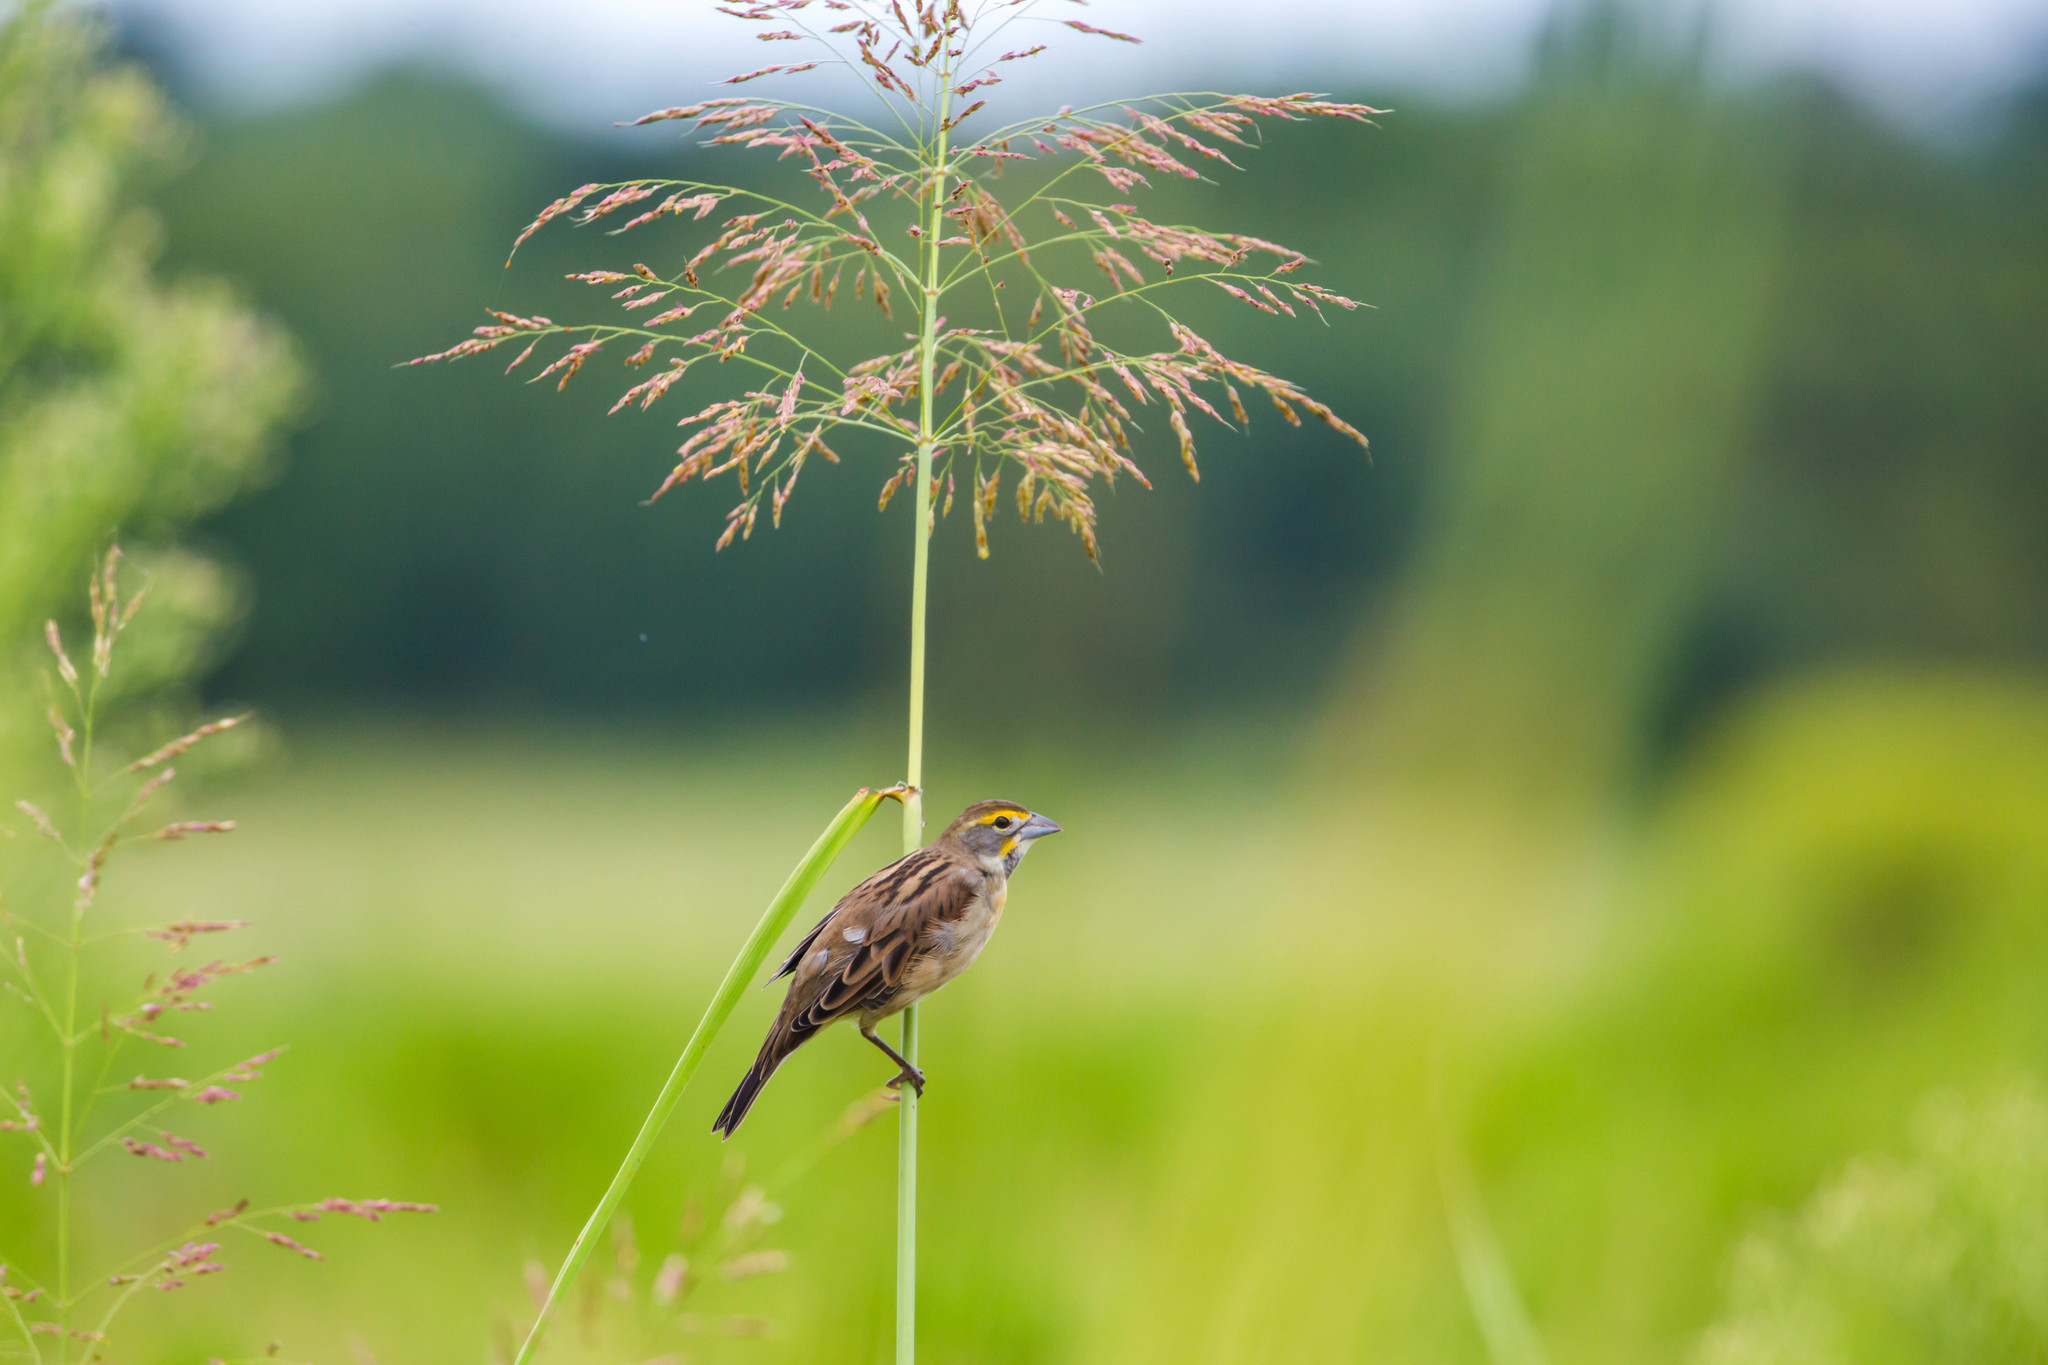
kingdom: Animalia
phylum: Chordata
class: Aves
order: Passeriformes
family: Cardinalidae
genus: Spiza
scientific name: Spiza americana
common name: Dickcissel
